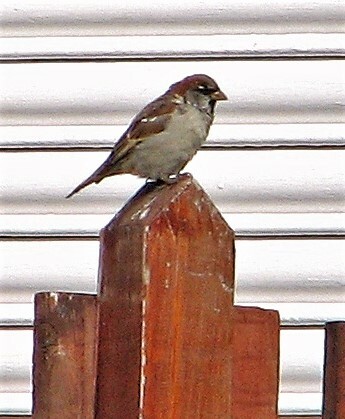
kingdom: Animalia
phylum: Chordata
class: Aves
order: Passeriformes
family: Passeridae
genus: Passer
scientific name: Passer domesticus
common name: House sparrow
